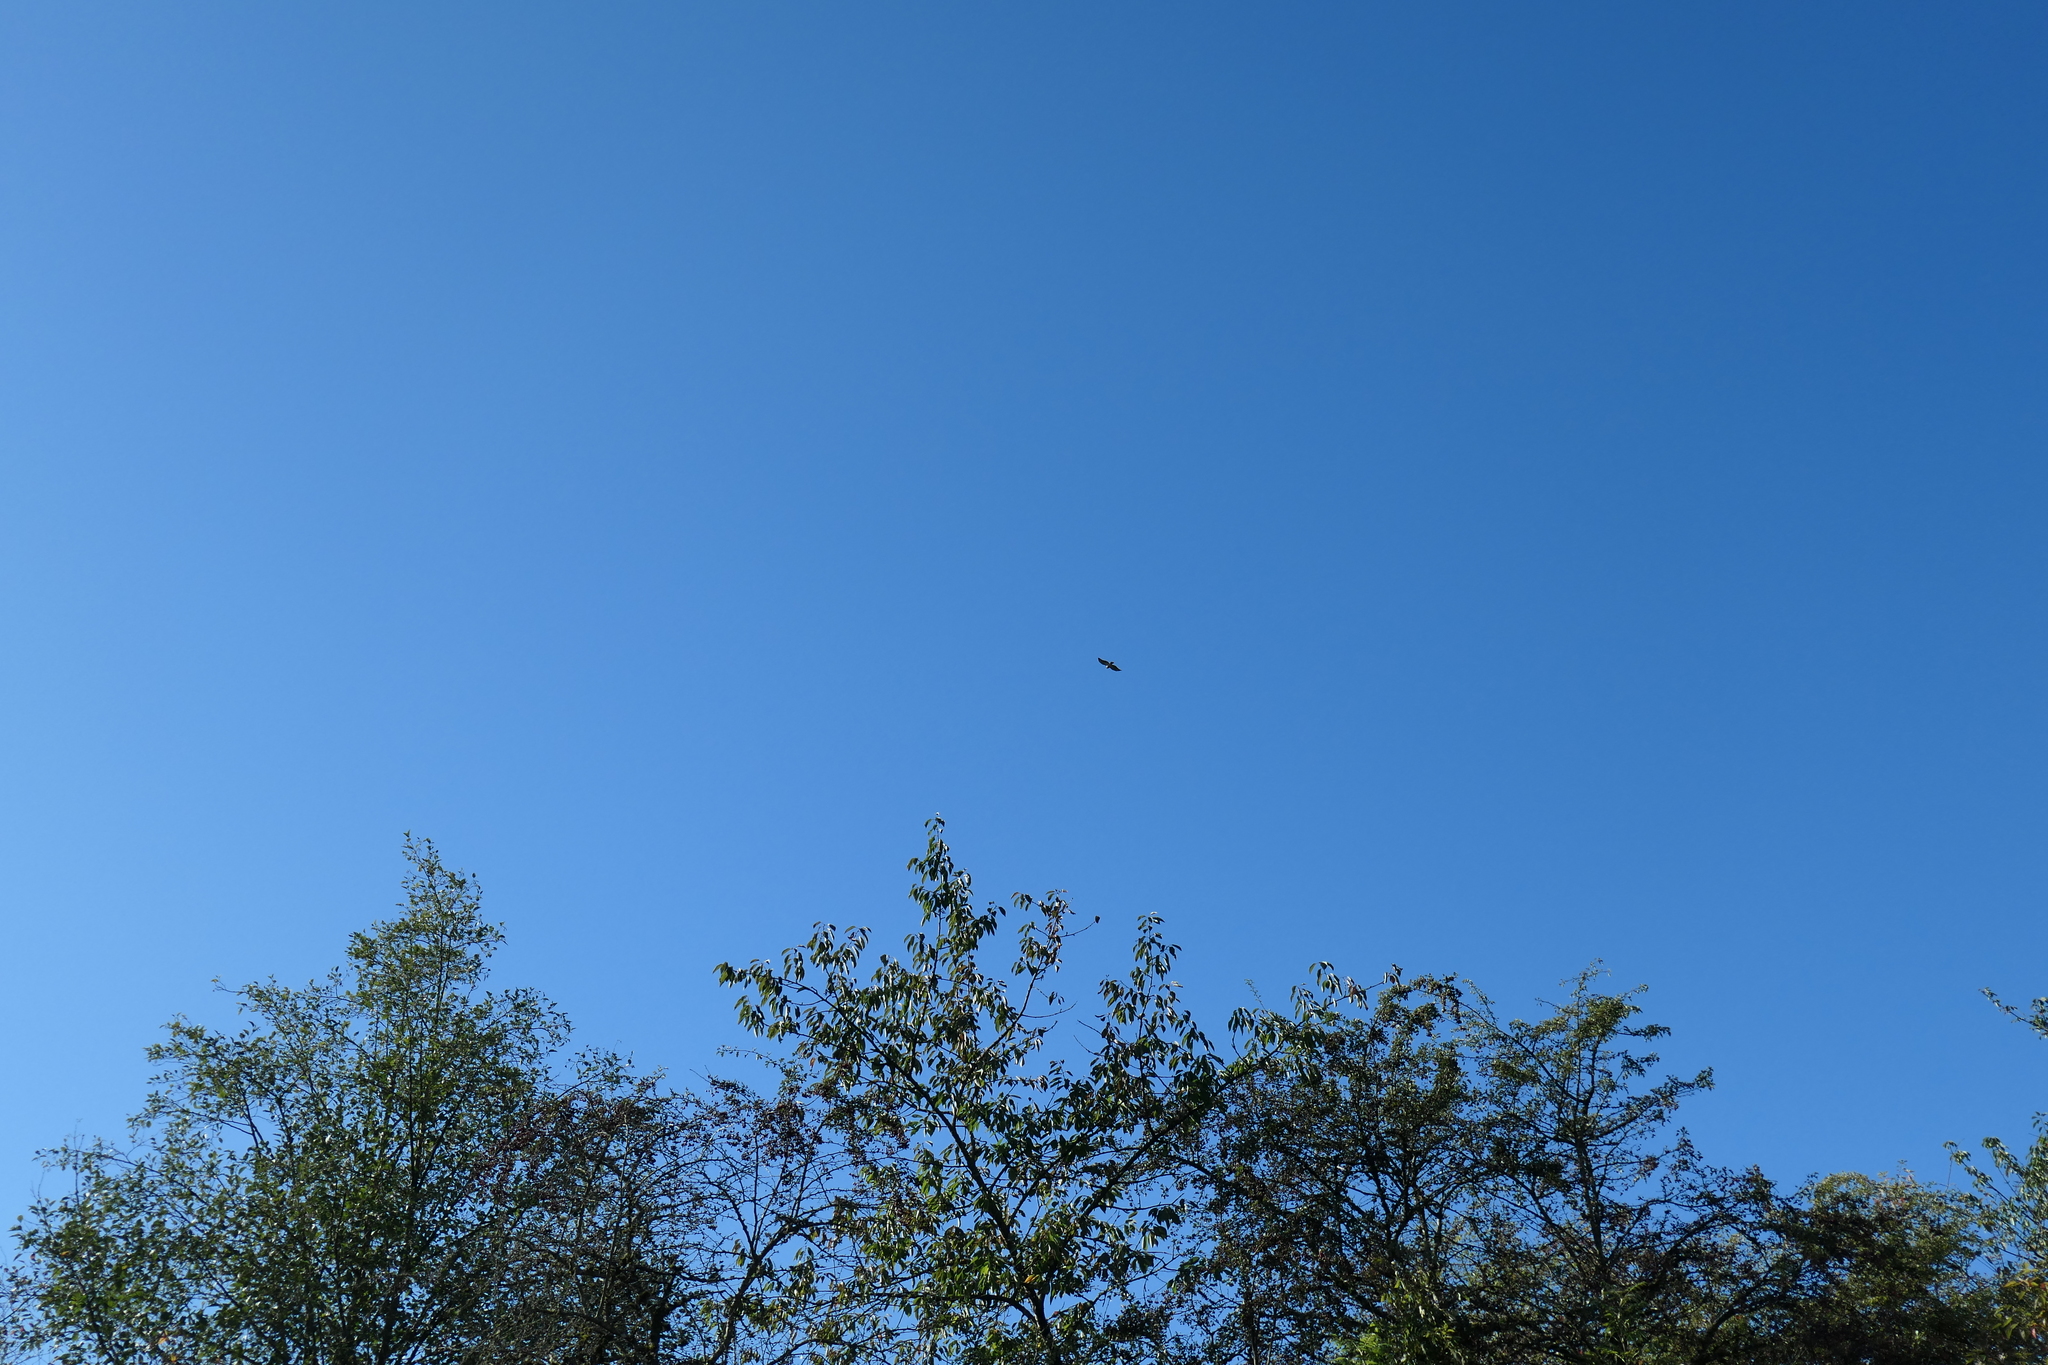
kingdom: Animalia
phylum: Chordata
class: Aves
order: Accipitriformes
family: Accipitridae
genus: Haliaeetus
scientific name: Haliaeetus leucocephalus
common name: Bald eagle
